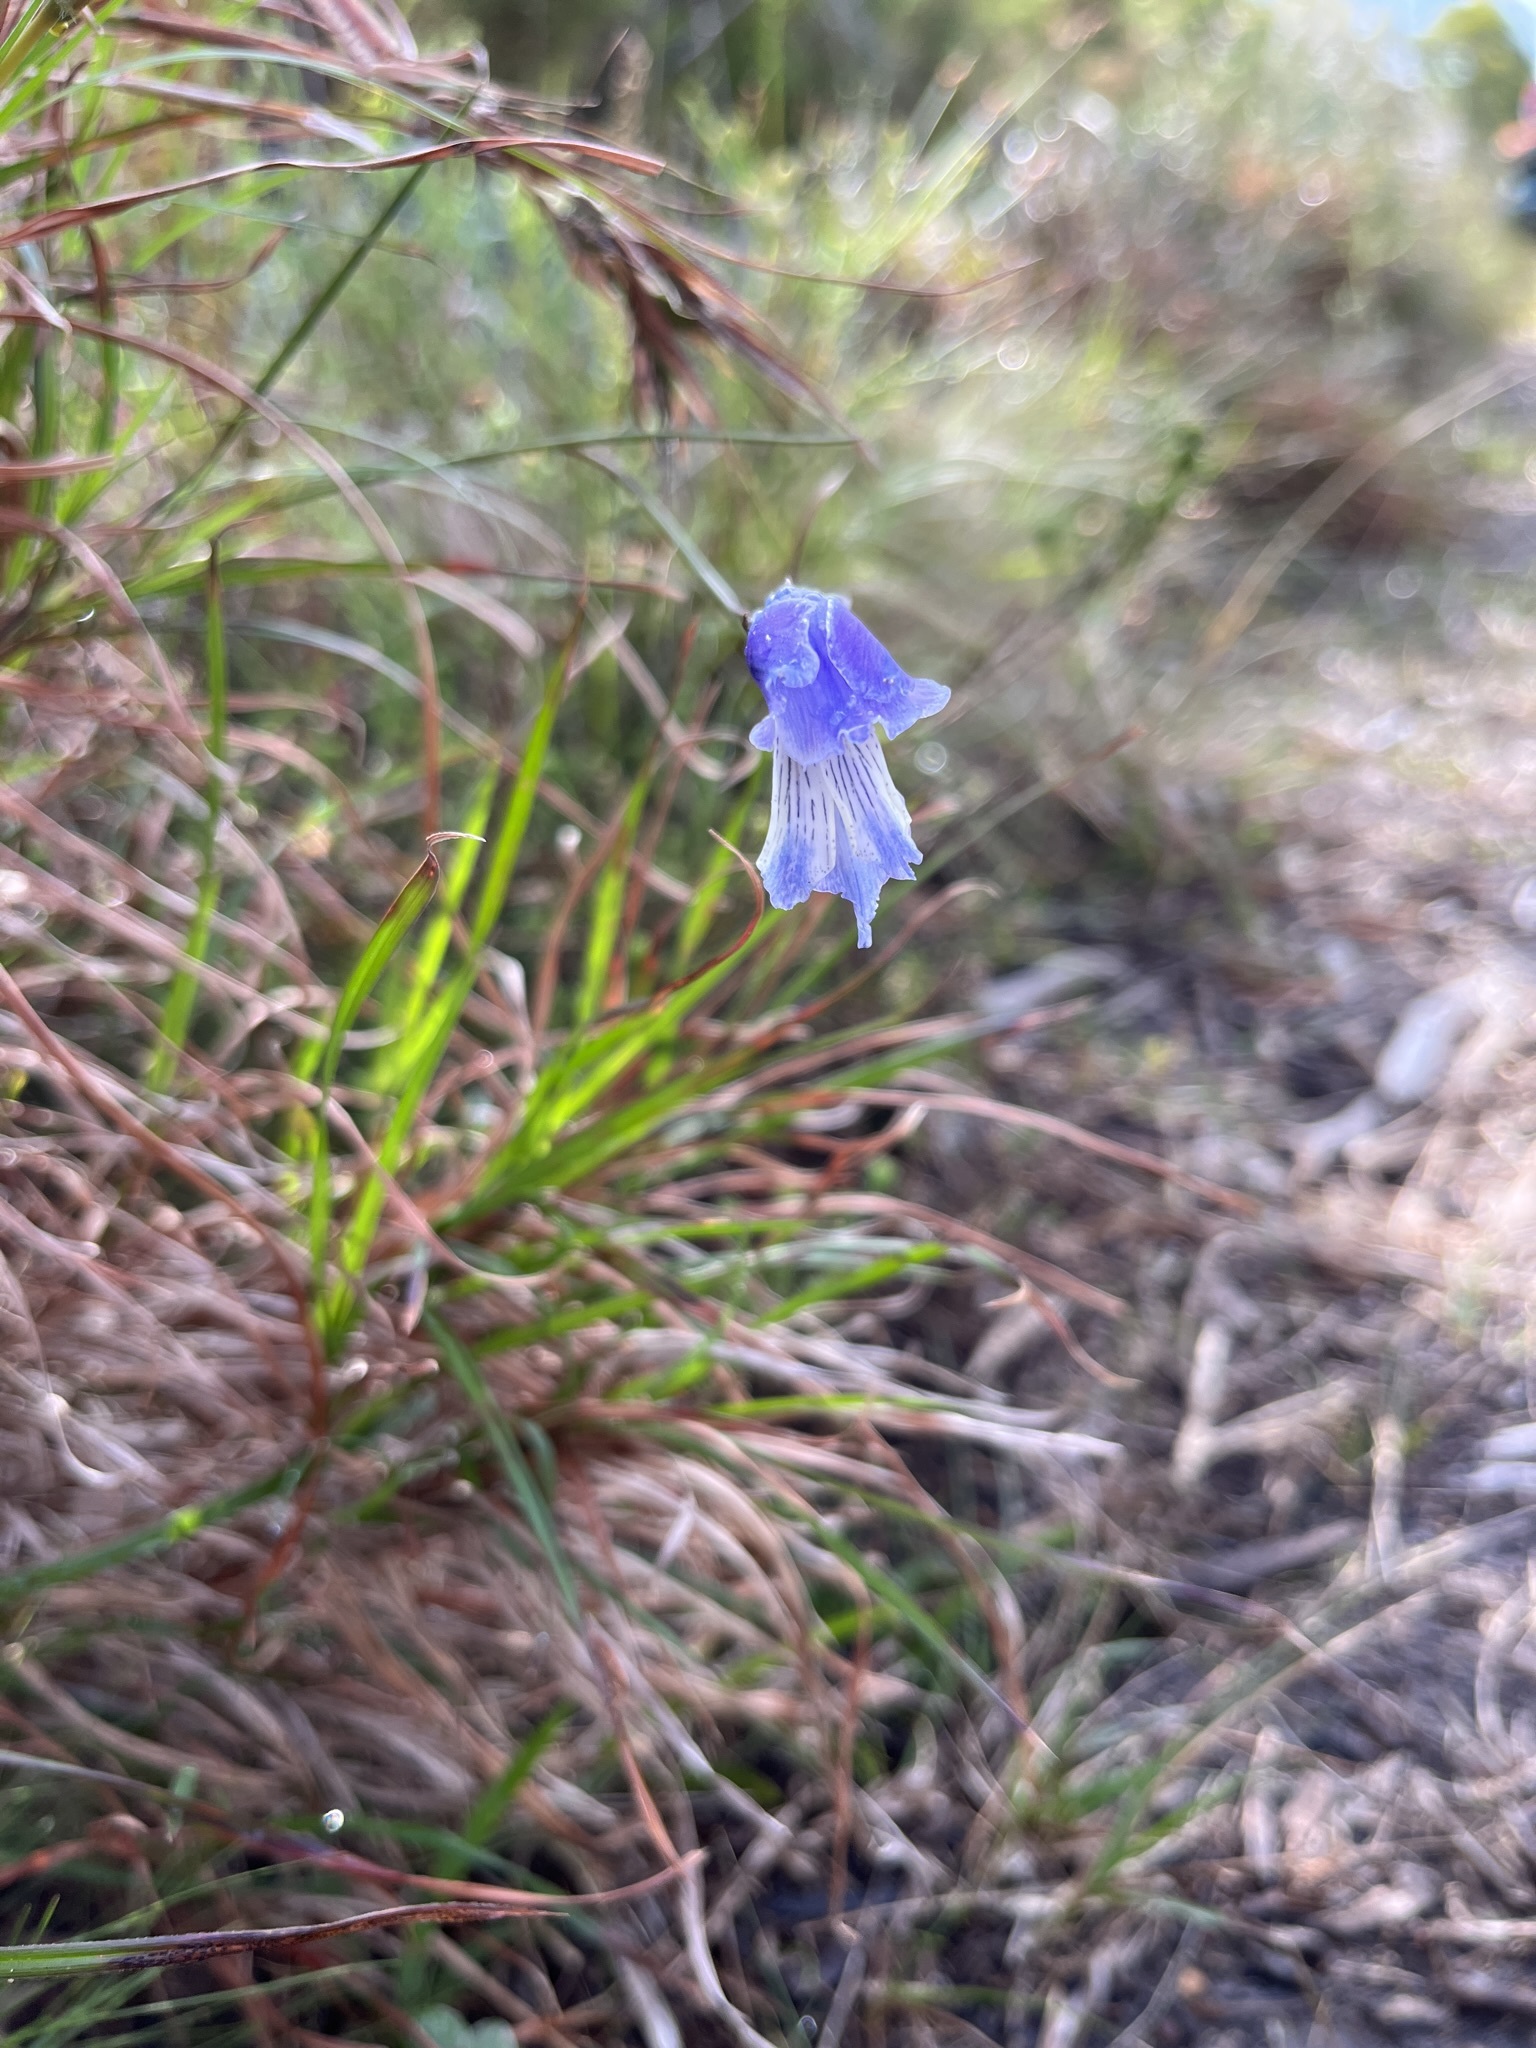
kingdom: Plantae
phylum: Tracheophyta
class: Liliopsida
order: Asparagales
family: Iridaceae
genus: Gladiolus
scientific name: Gladiolus gracilis
